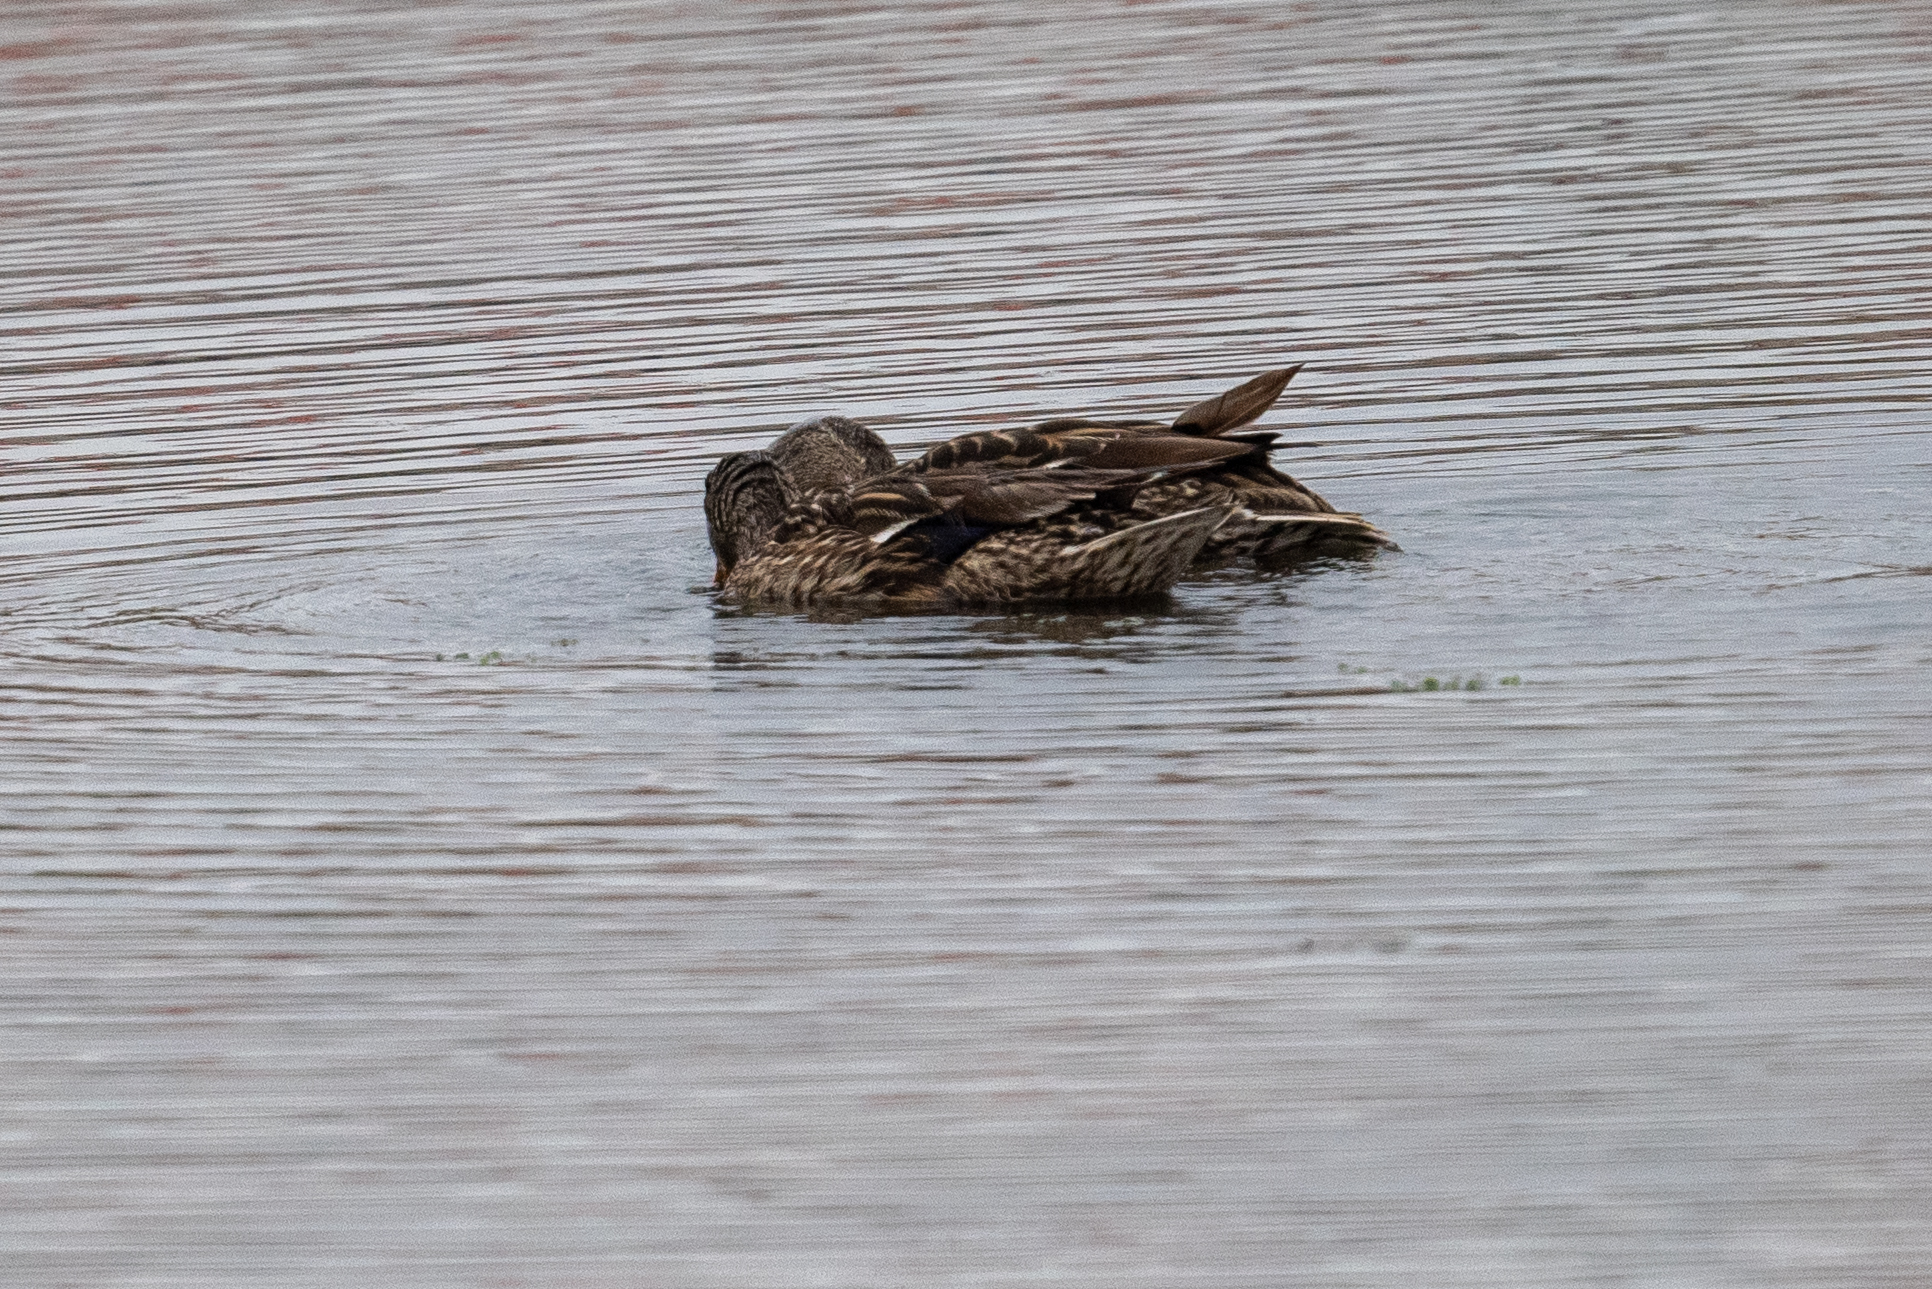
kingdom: Animalia
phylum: Chordata
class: Aves
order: Anseriformes
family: Anatidae
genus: Anas
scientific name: Anas platyrhynchos
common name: Mallard
